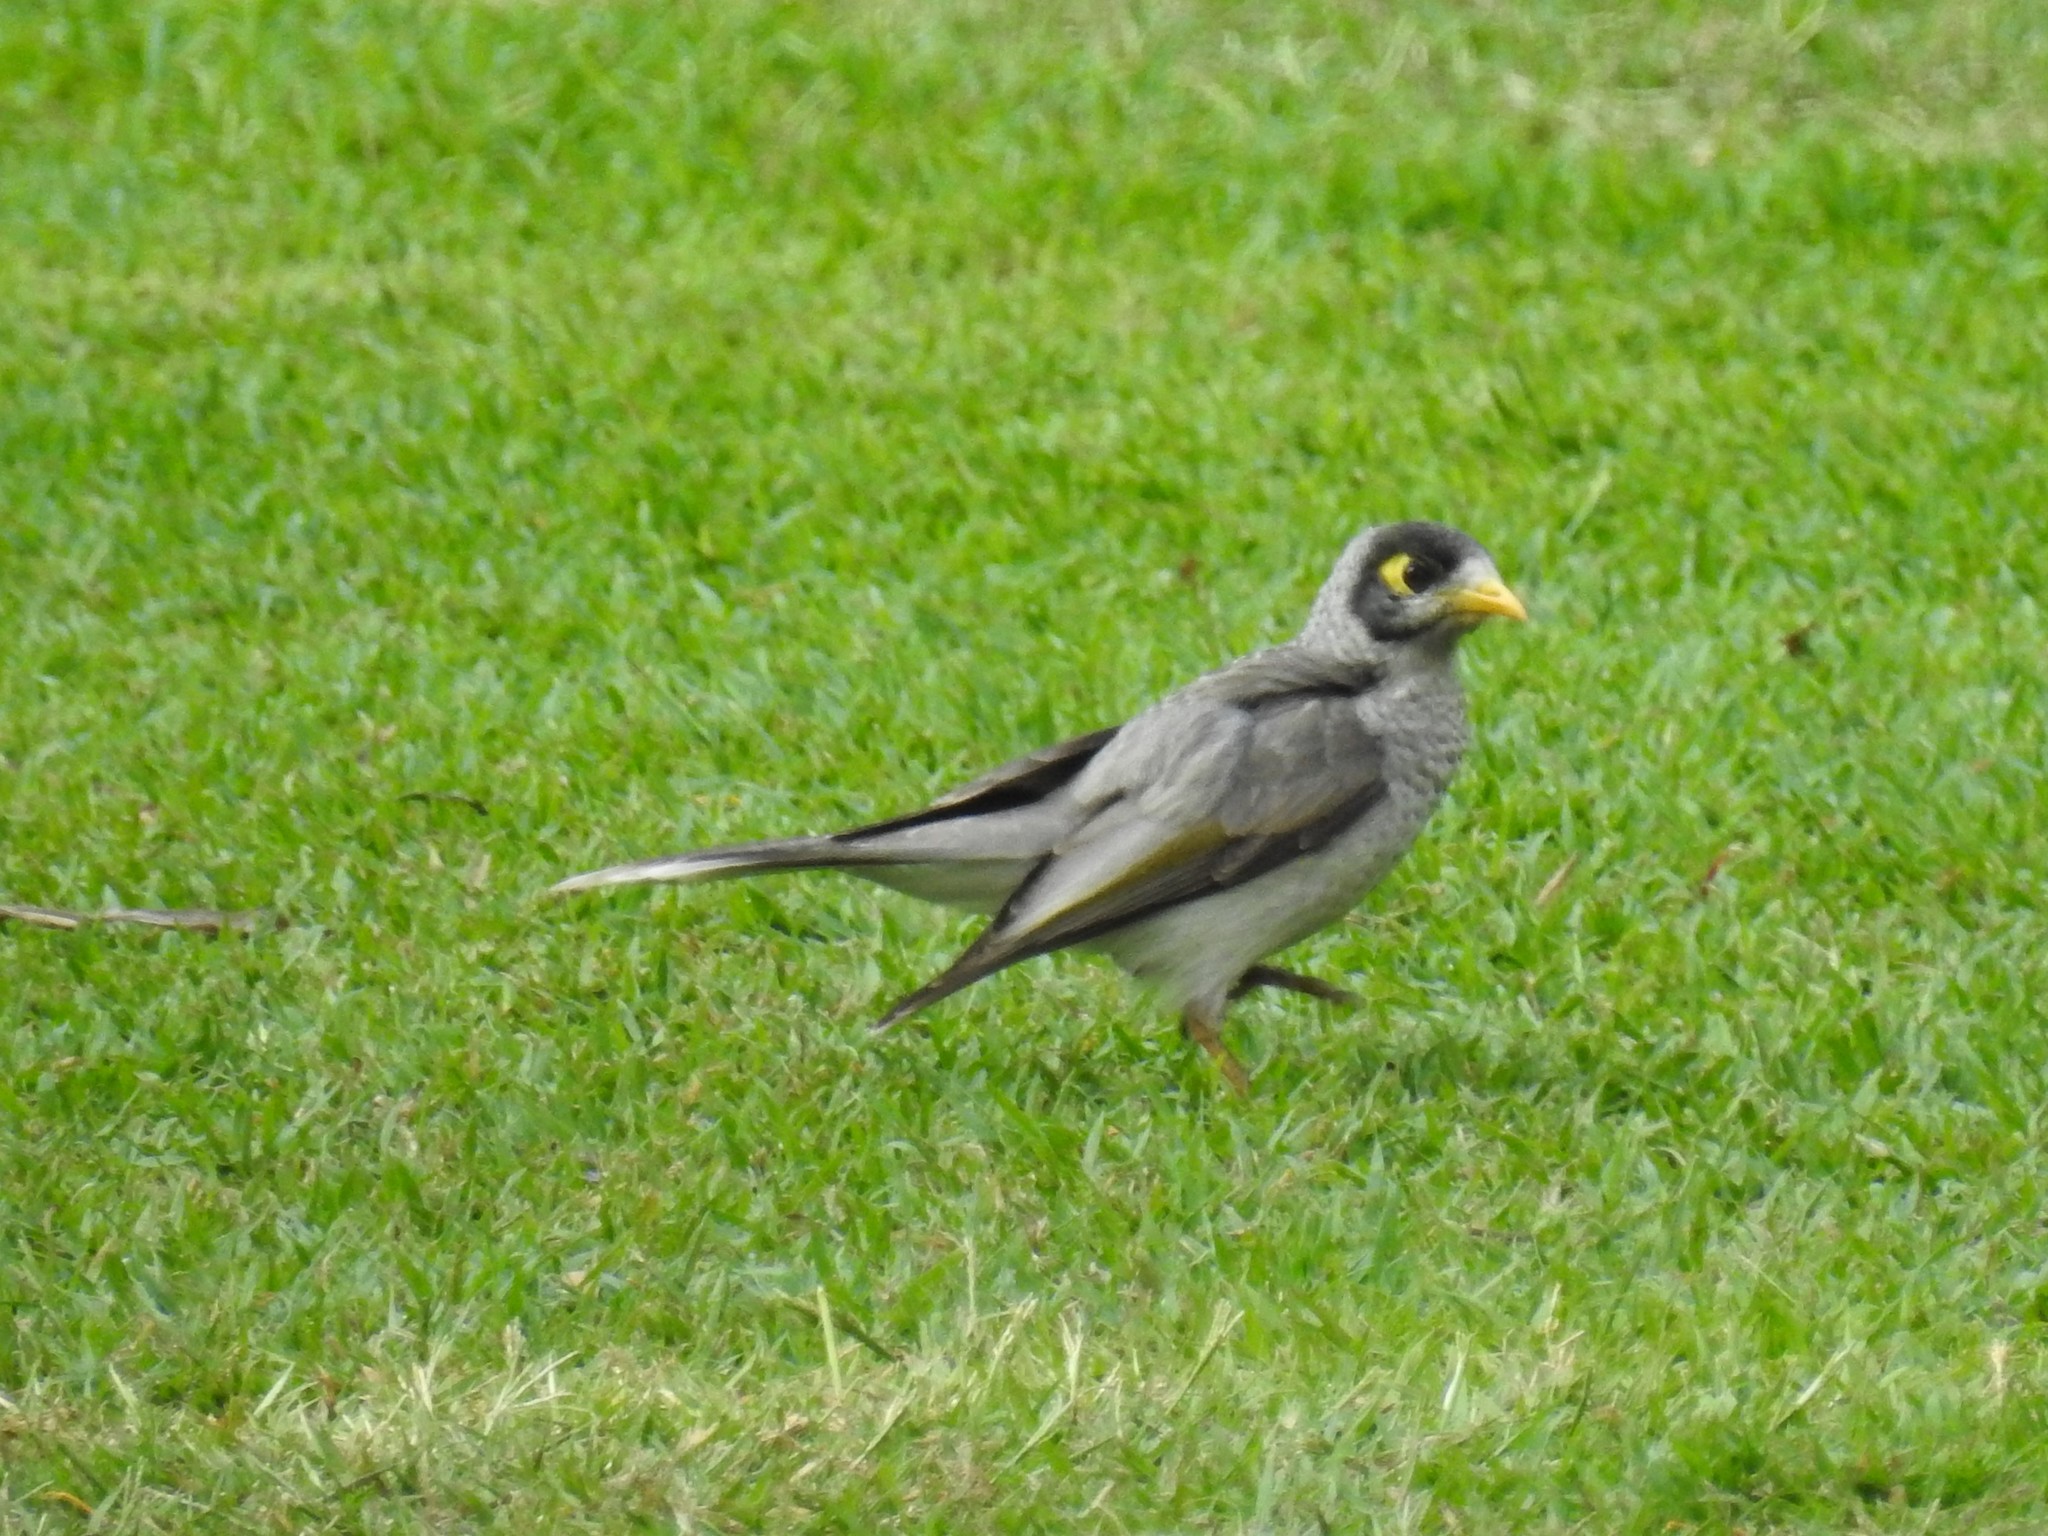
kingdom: Animalia
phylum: Chordata
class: Aves
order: Passeriformes
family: Meliphagidae
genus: Manorina
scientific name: Manorina melanocephala
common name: Noisy miner
